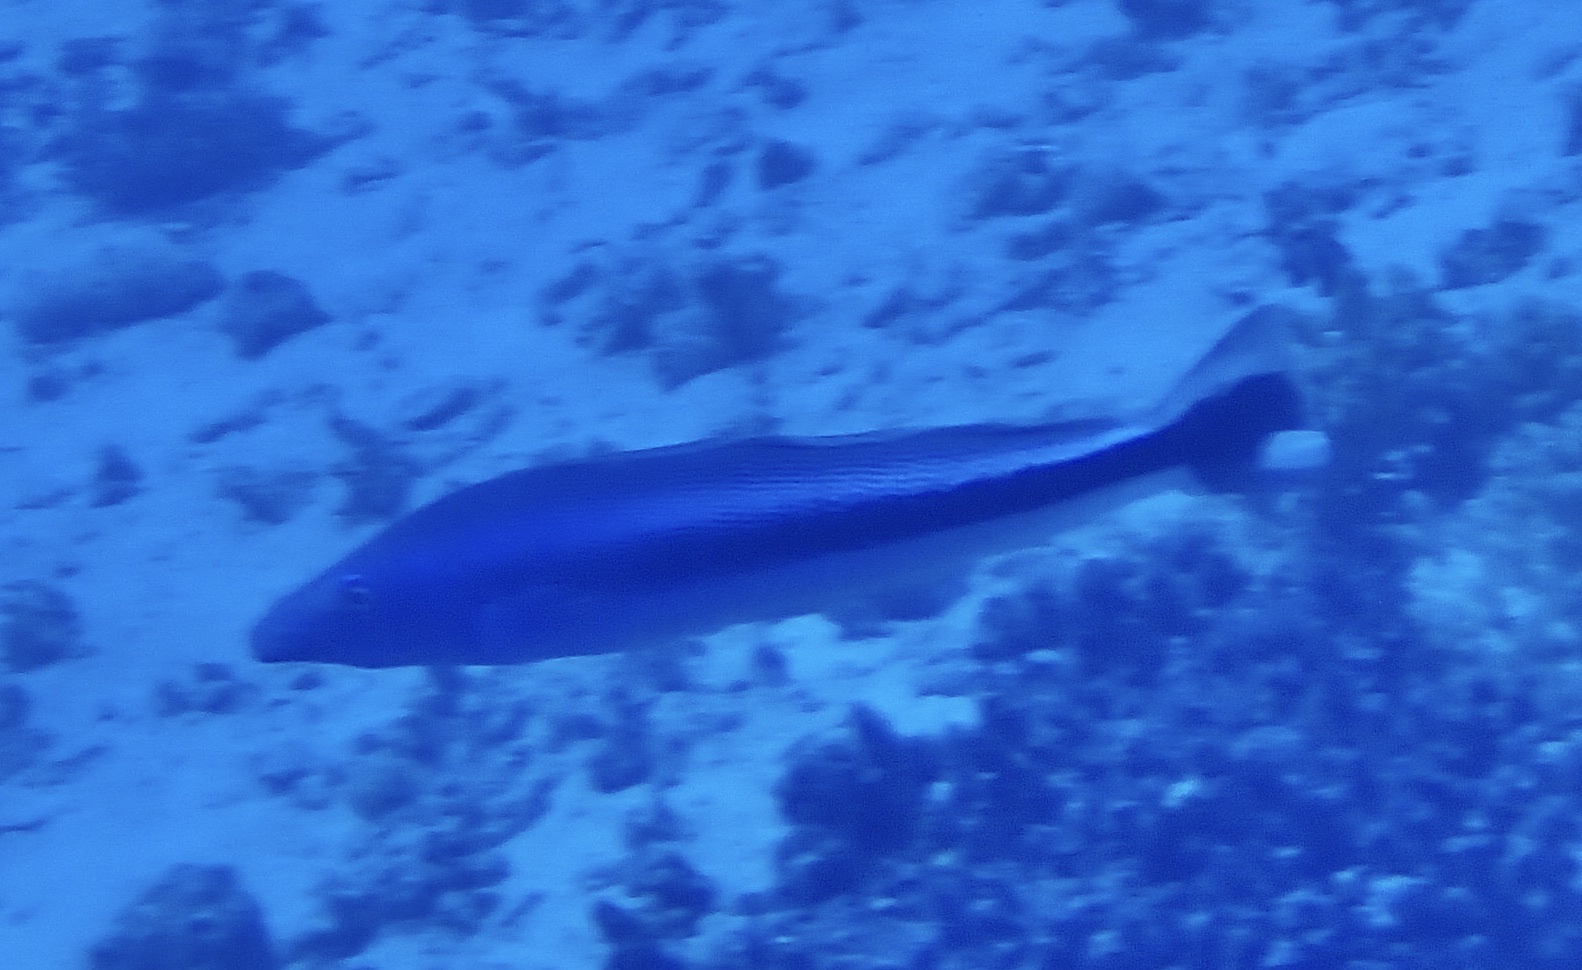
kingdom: Animalia
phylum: Chordata
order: Perciformes
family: Malacanthidae
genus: Malacanthus
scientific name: Malacanthus latovittatus
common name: Blue blanquillo
